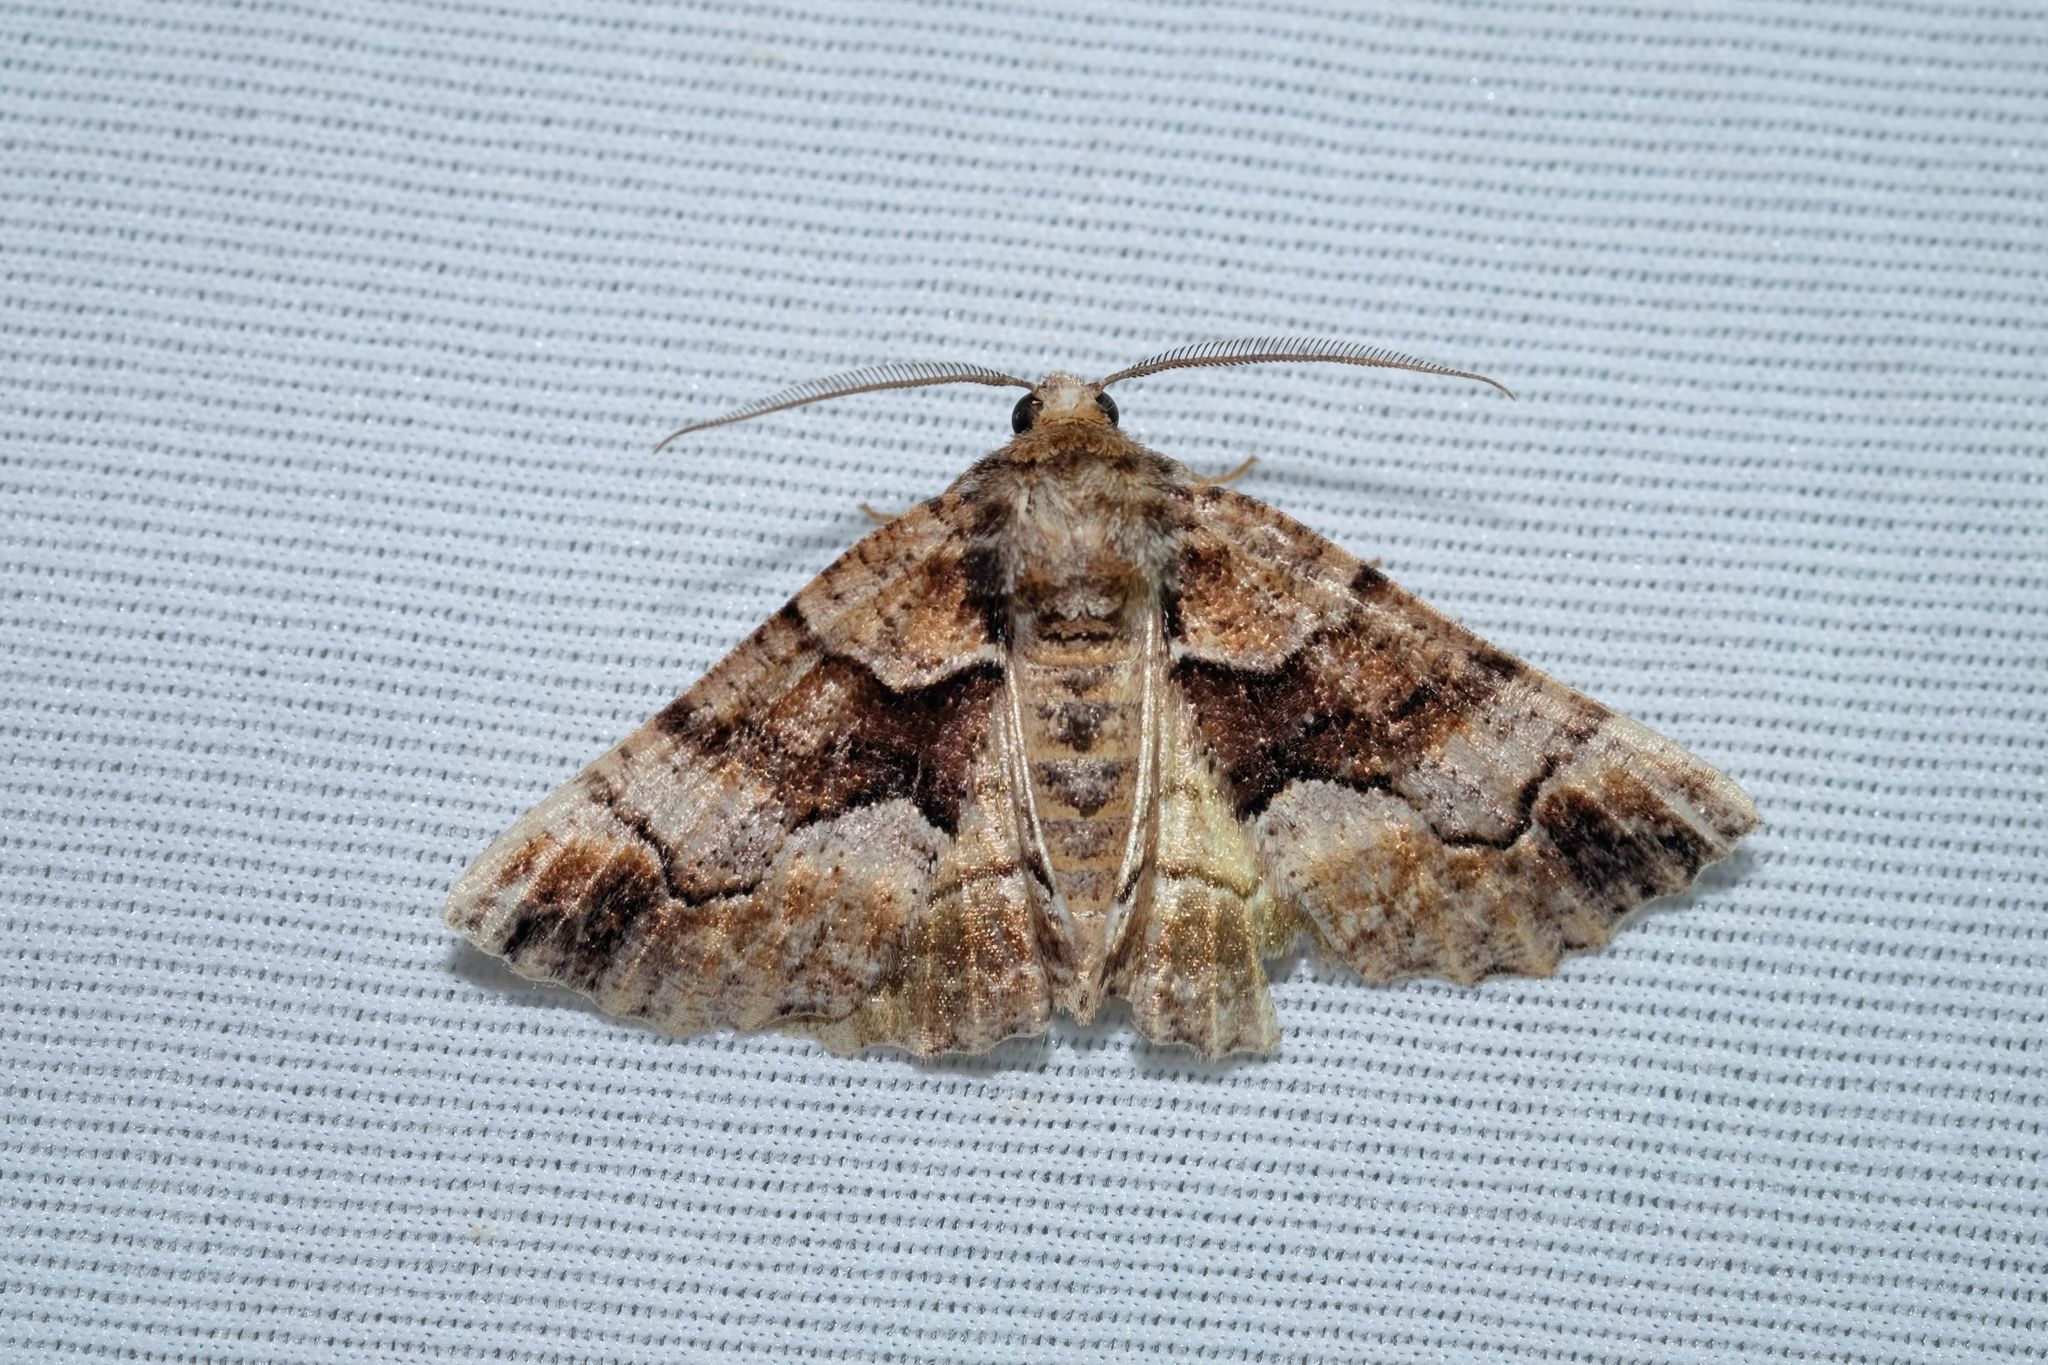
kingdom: Animalia
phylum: Arthropoda
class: Insecta
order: Lepidoptera
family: Geometridae
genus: Gastrina
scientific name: Gastrina cristaria
